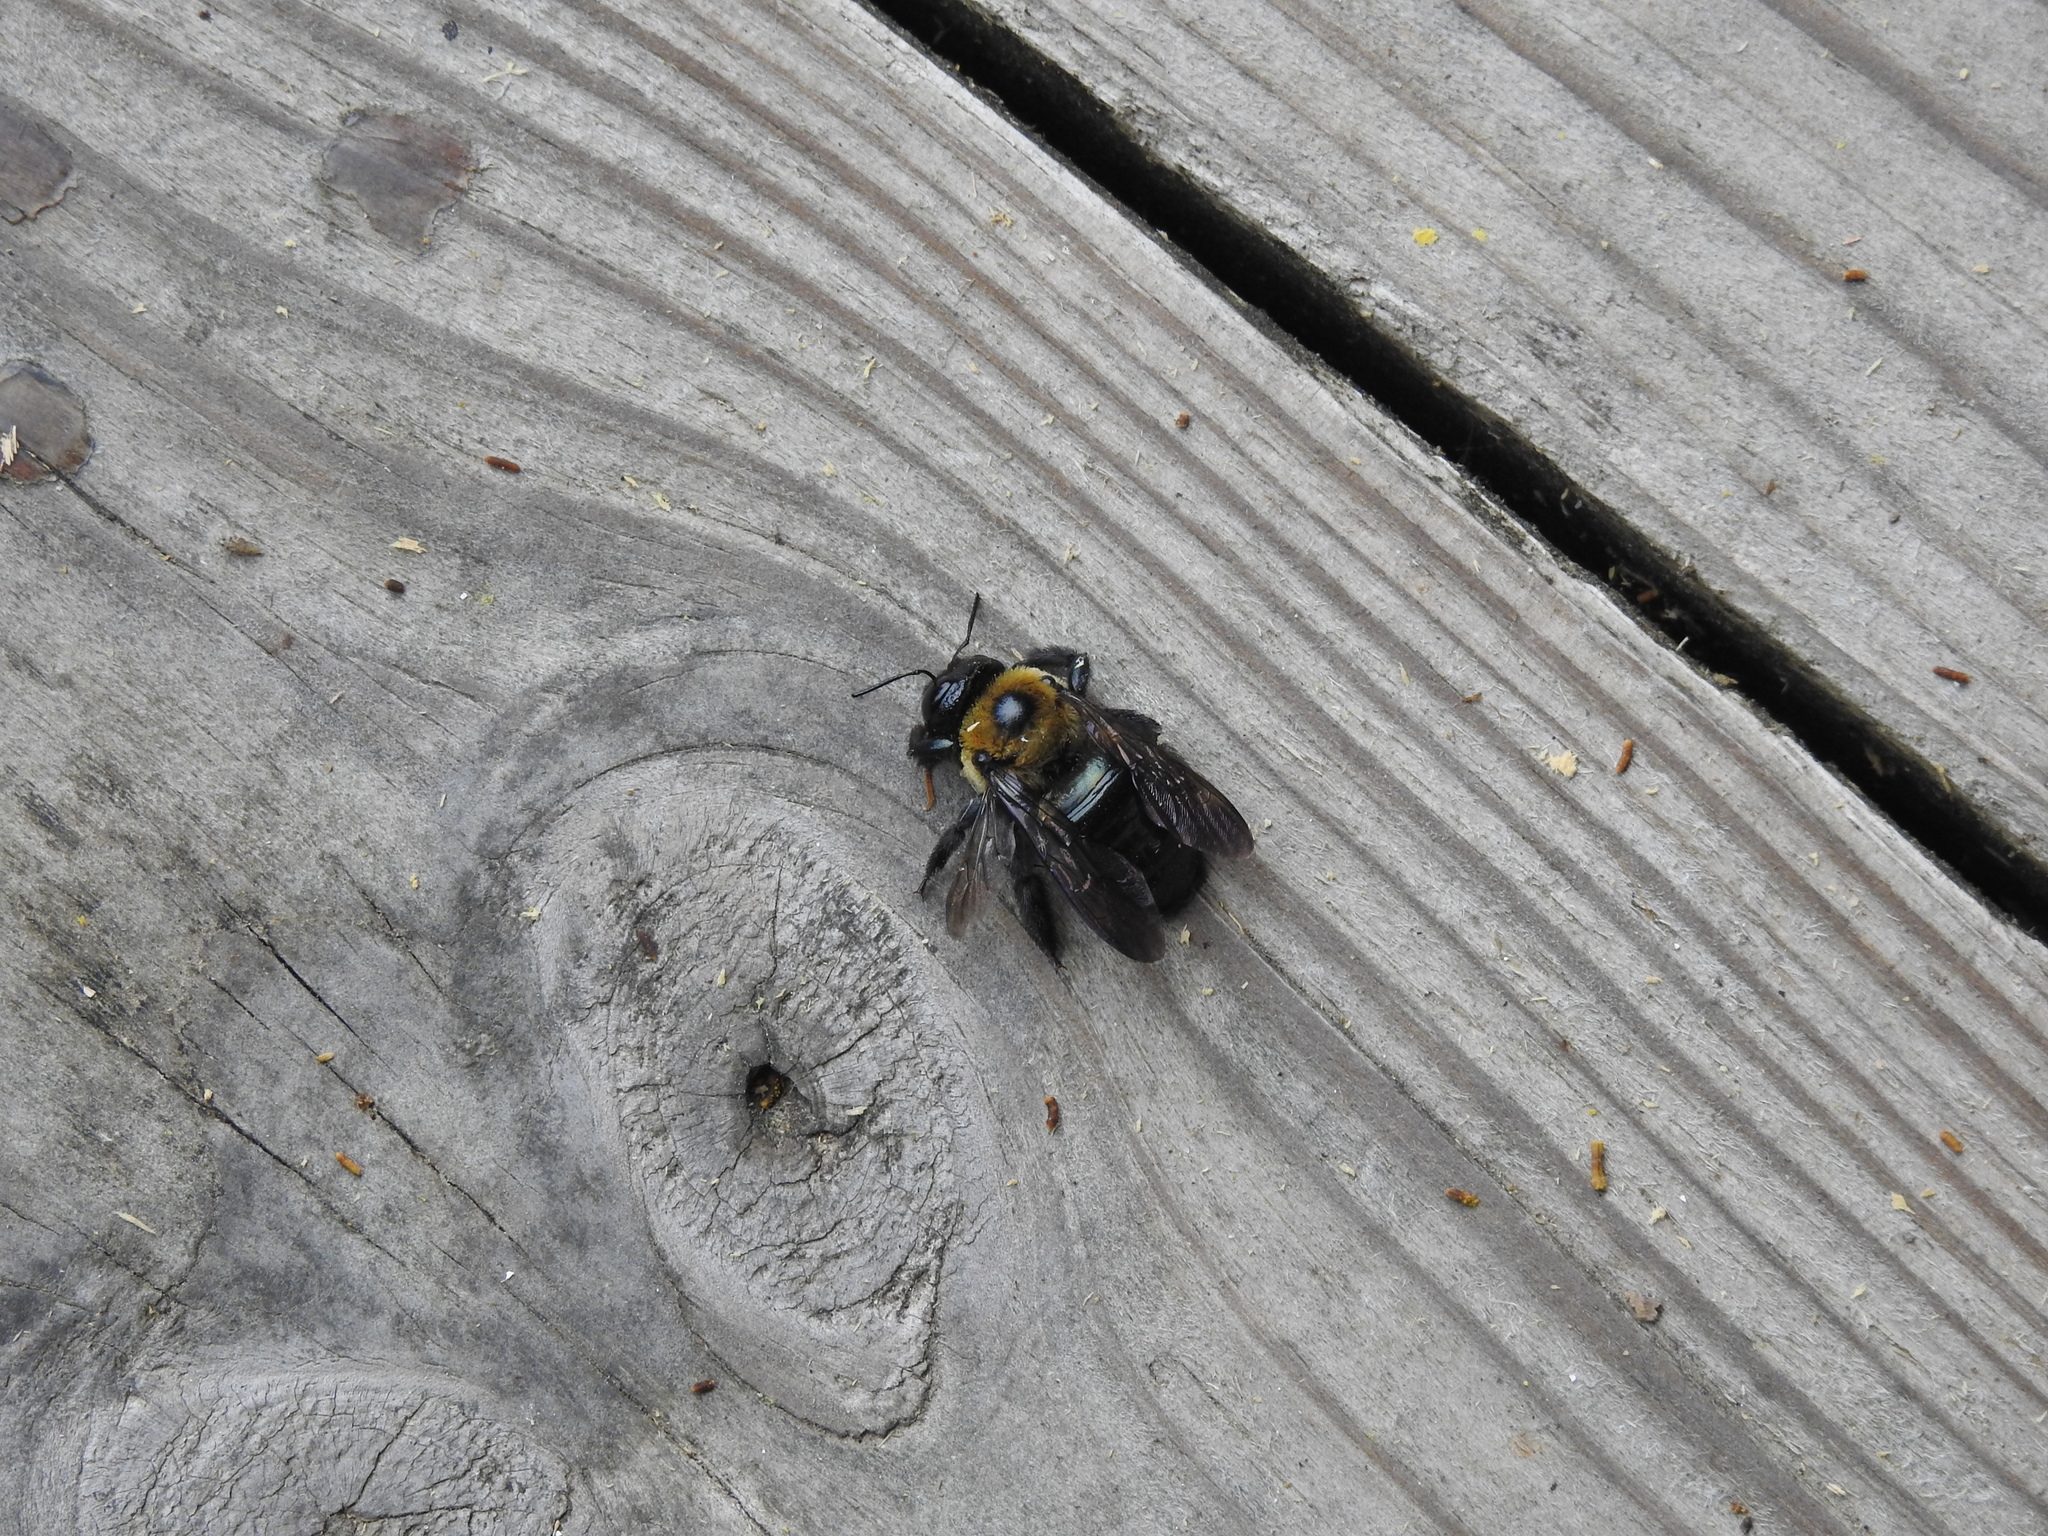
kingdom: Animalia
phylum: Arthropoda
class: Insecta
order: Hymenoptera
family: Apidae
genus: Xylocopa
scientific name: Xylocopa virginica
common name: Carpenter bee
